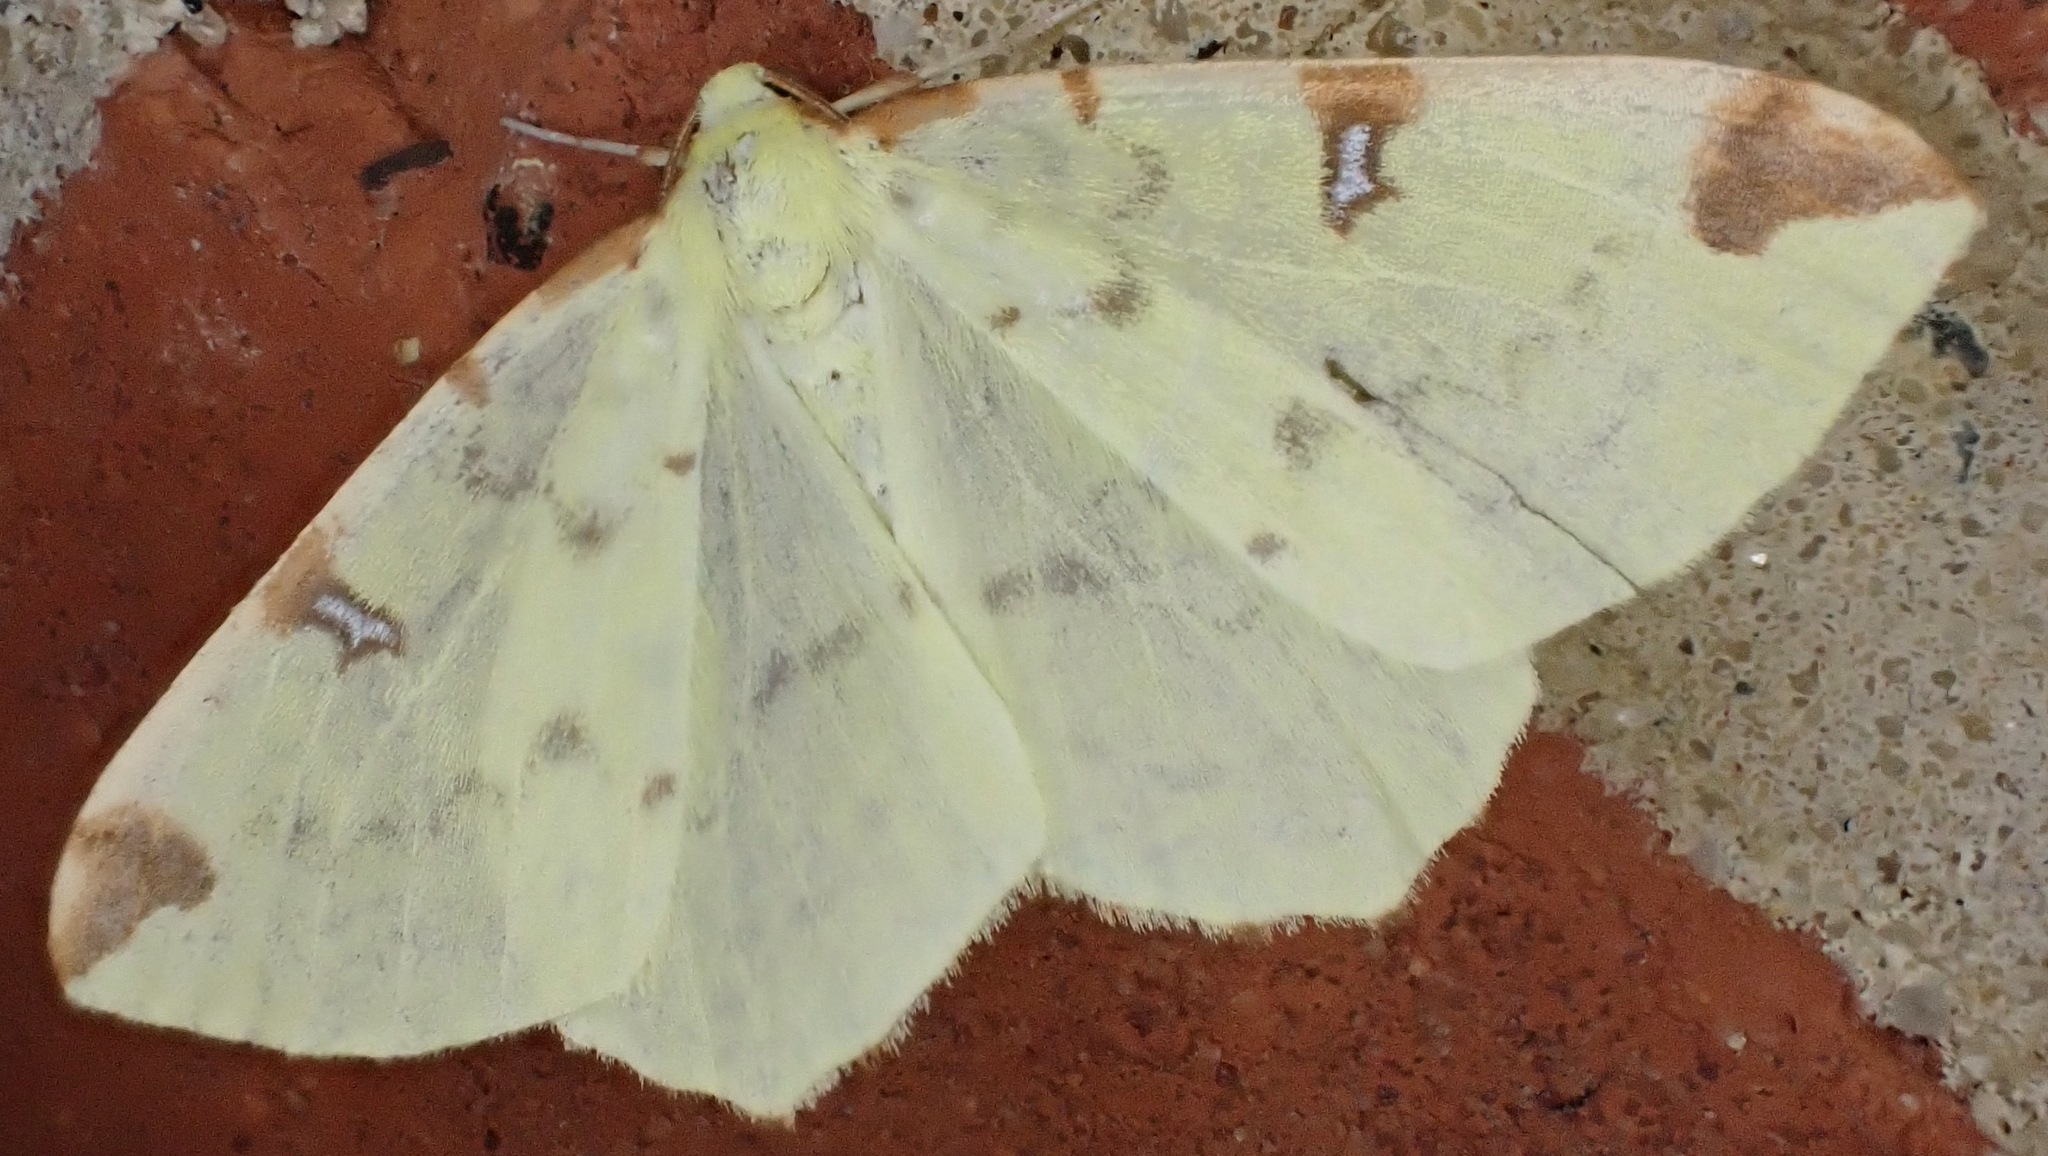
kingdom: Animalia
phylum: Arthropoda
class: Insecta
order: Lepidoptera
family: Geometridae
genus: Opisthograptis
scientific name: Opisthograptis luteolata
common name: Brimstone moth
